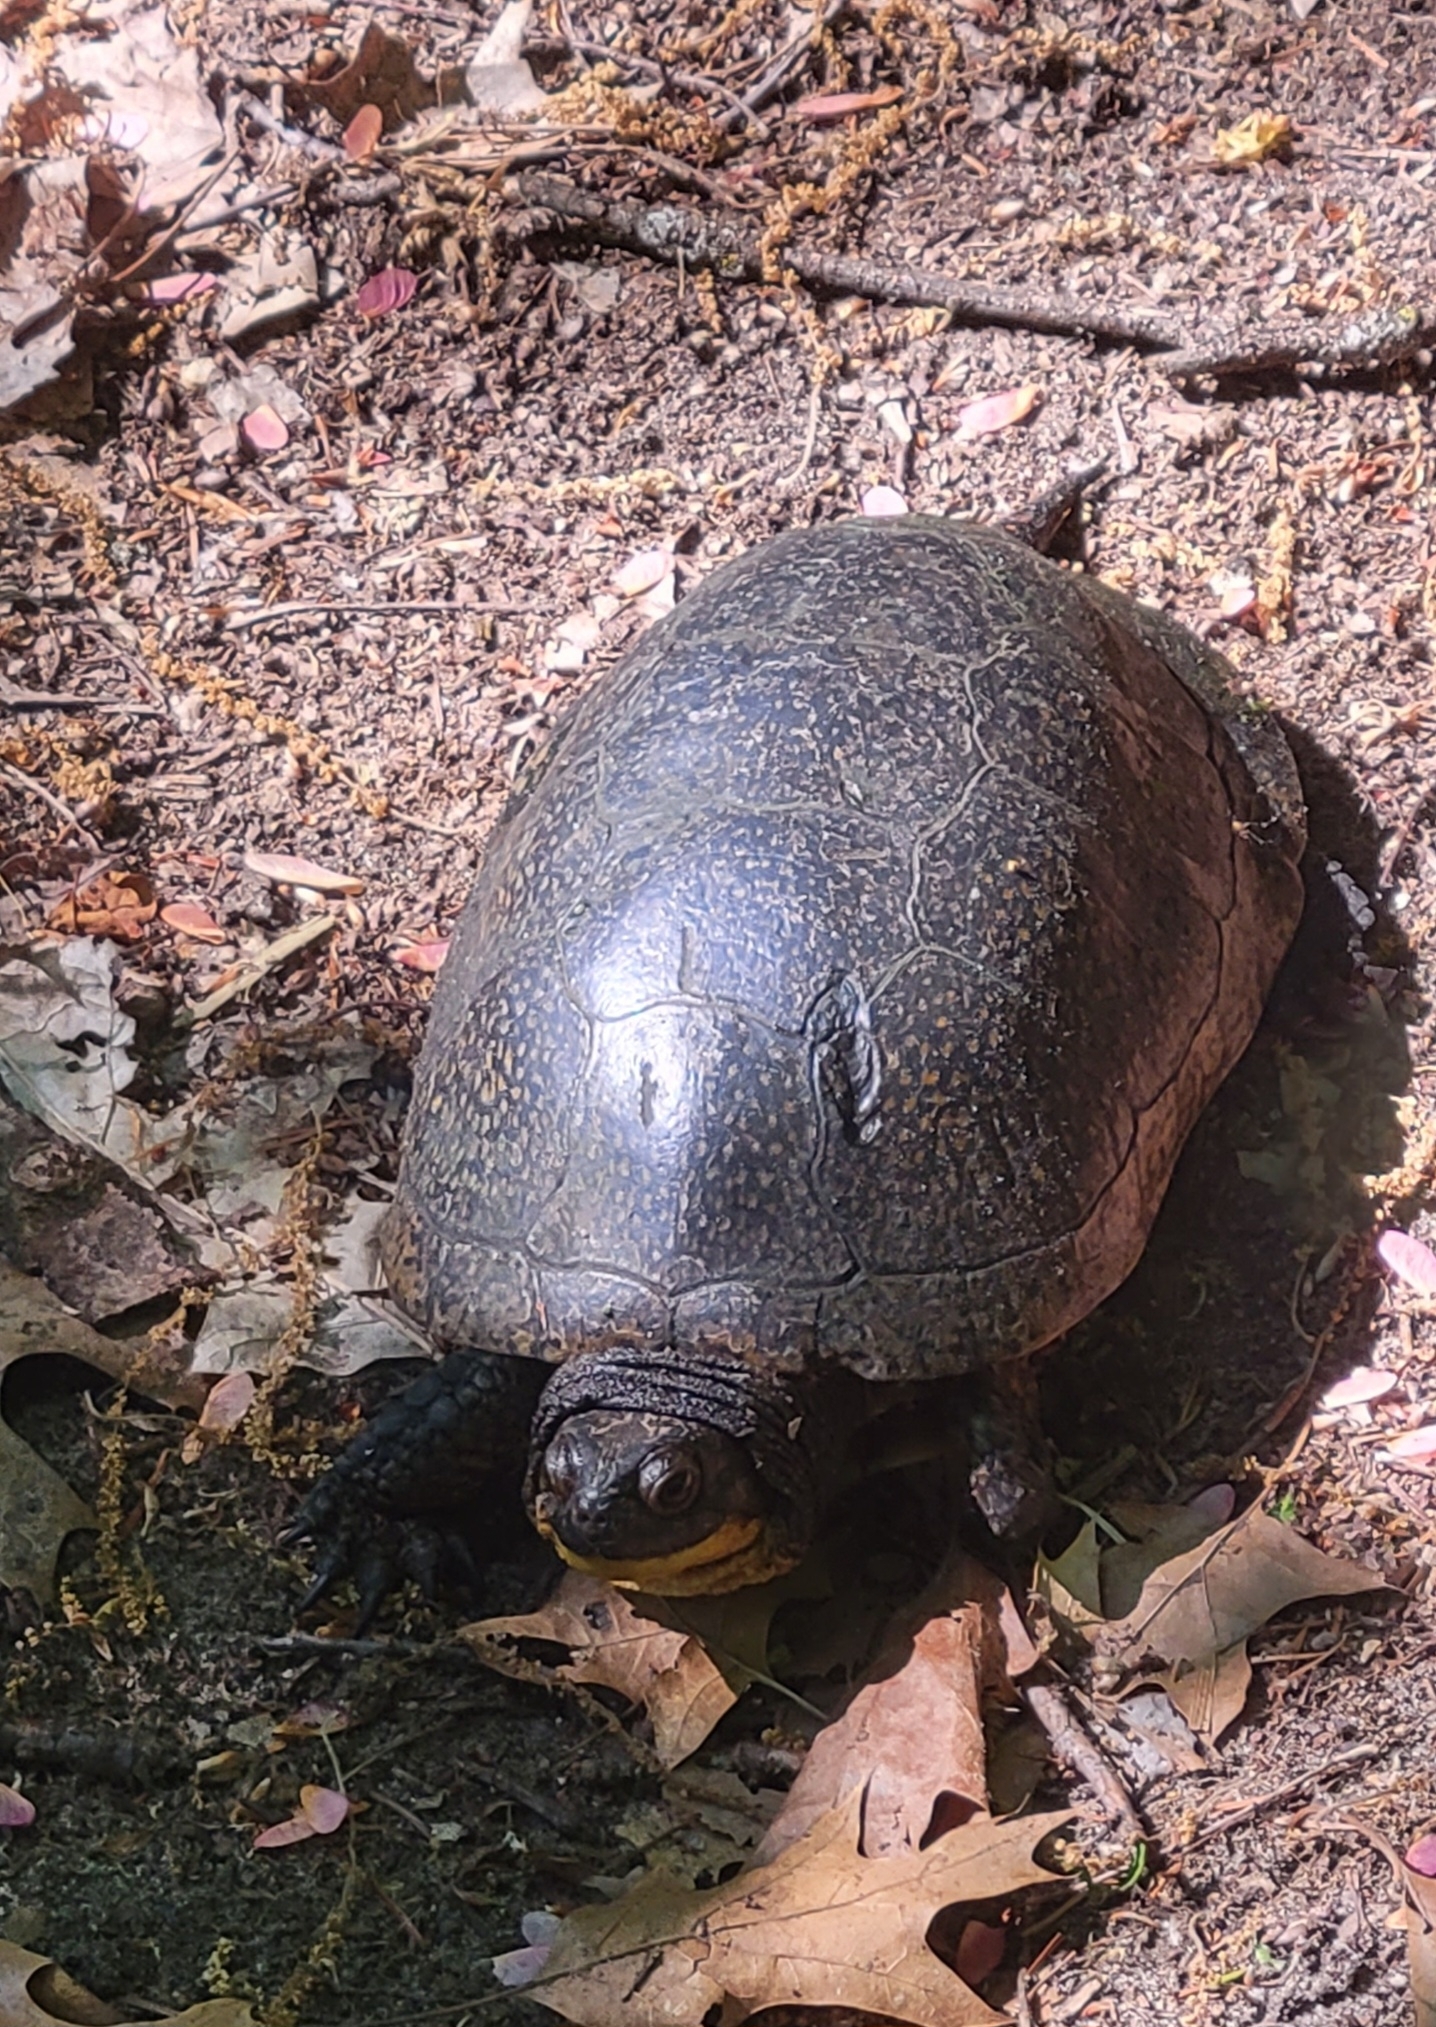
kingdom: Animalia
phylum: Chordata
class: Testudines
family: Emydidae
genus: Emys
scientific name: Emys blandingii
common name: Blanding's turtle
